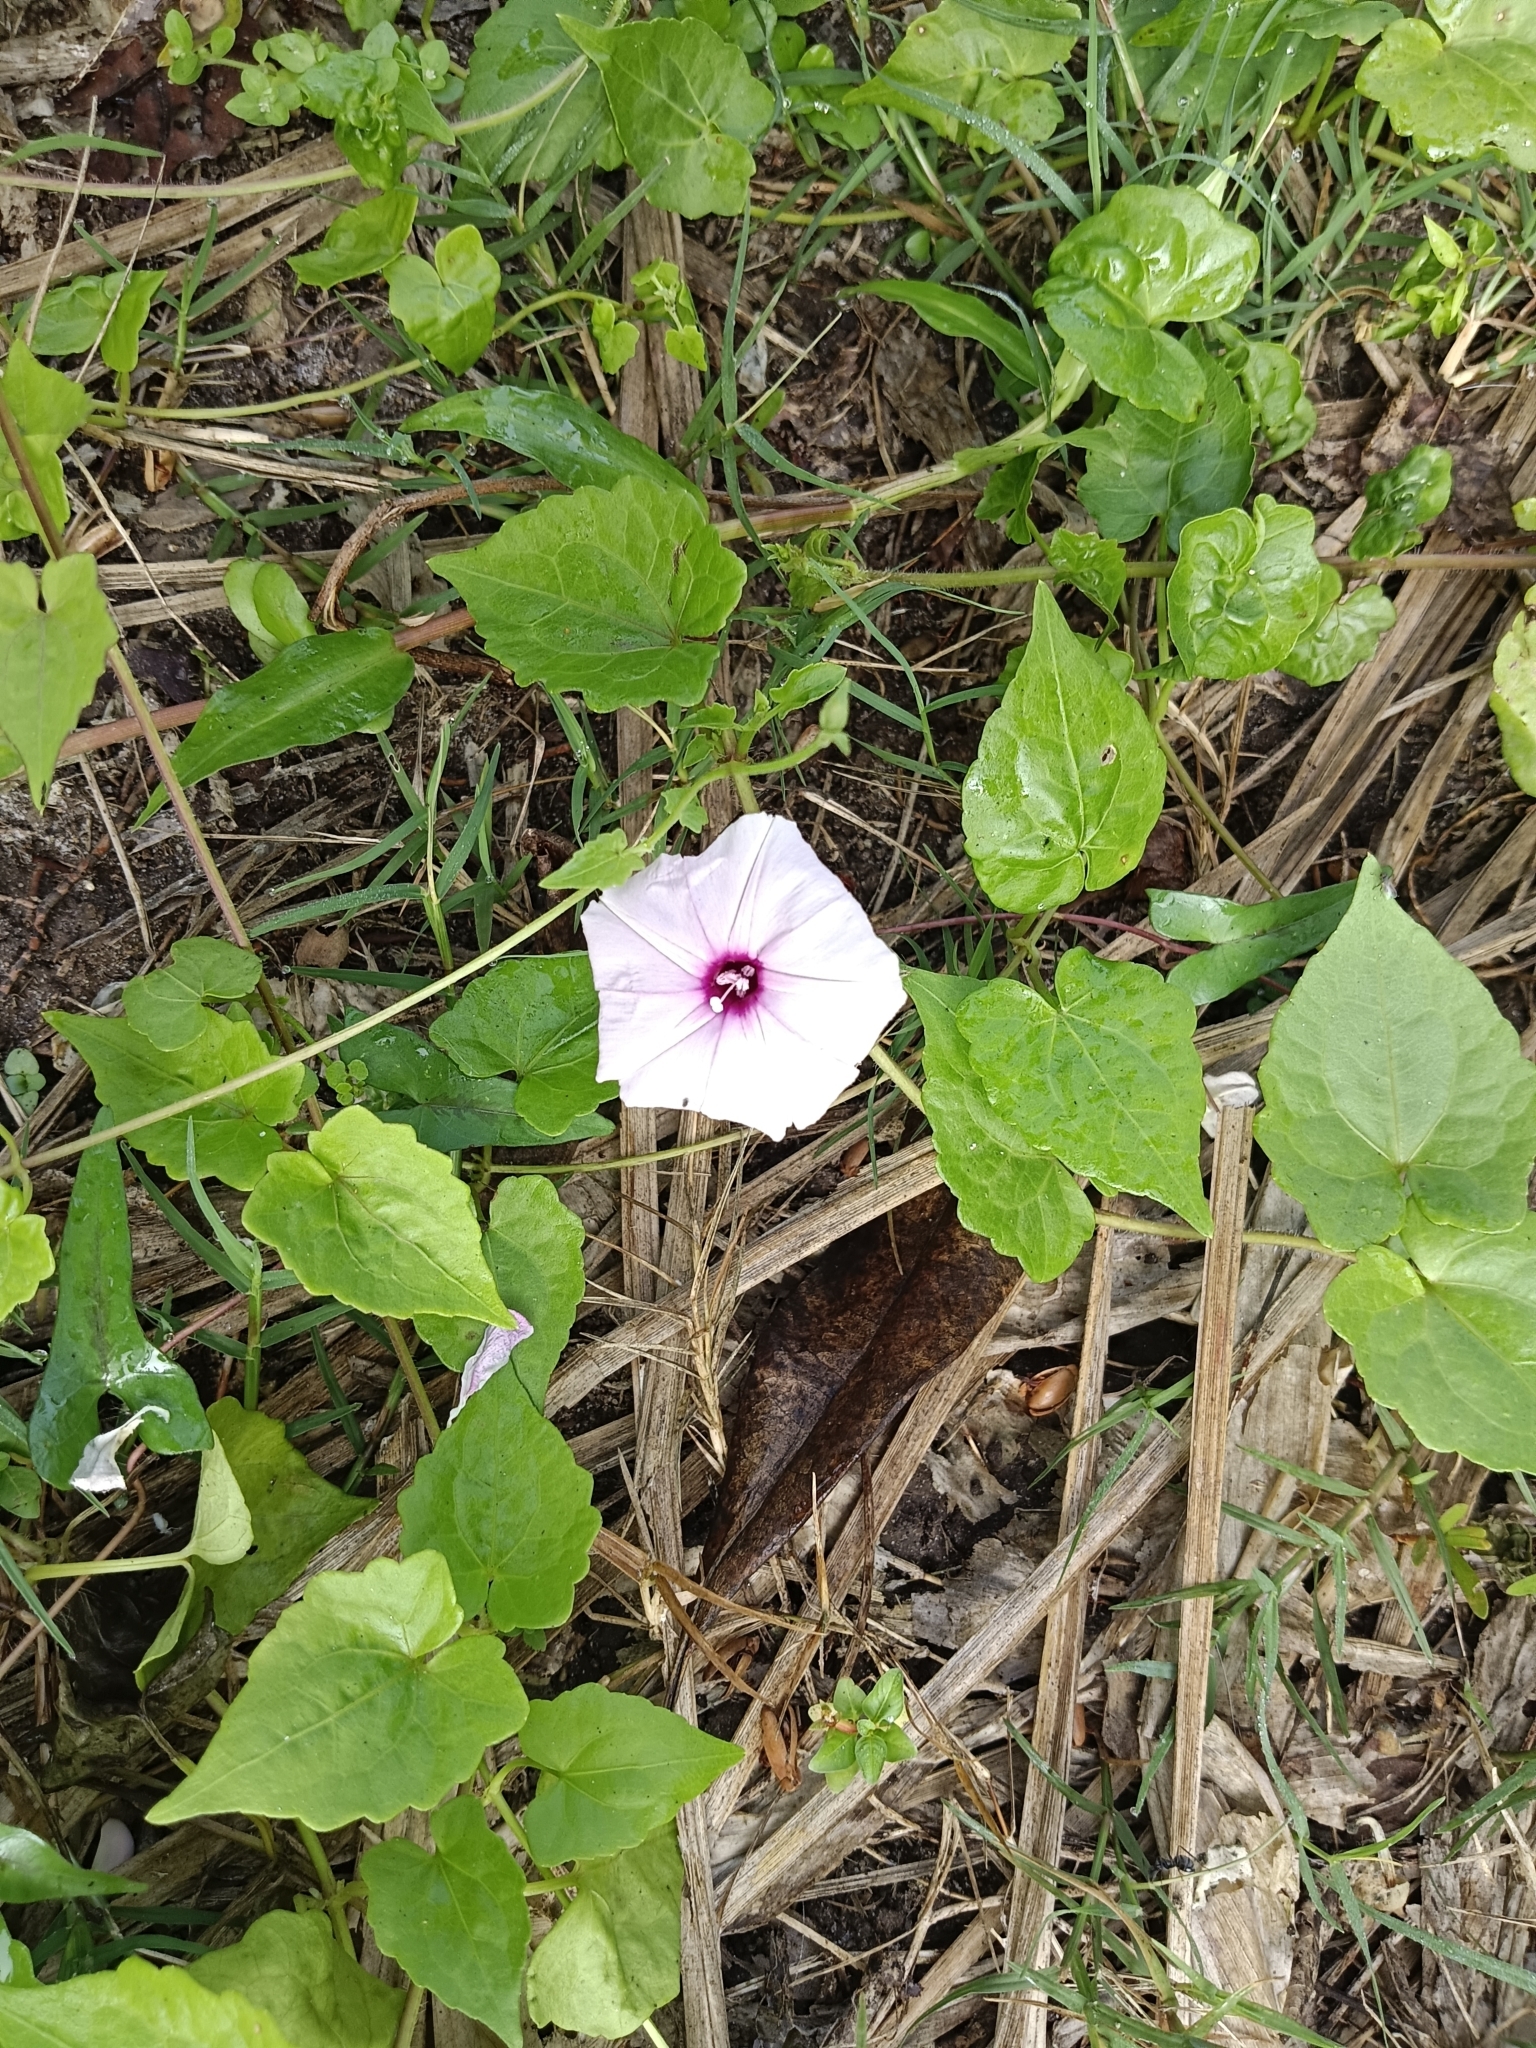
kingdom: Plantae
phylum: Tracheophyta
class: Magnoliopsida
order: Solanales
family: Convolvulaceae
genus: Ipomoea
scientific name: Ipomoea sagittifolia
